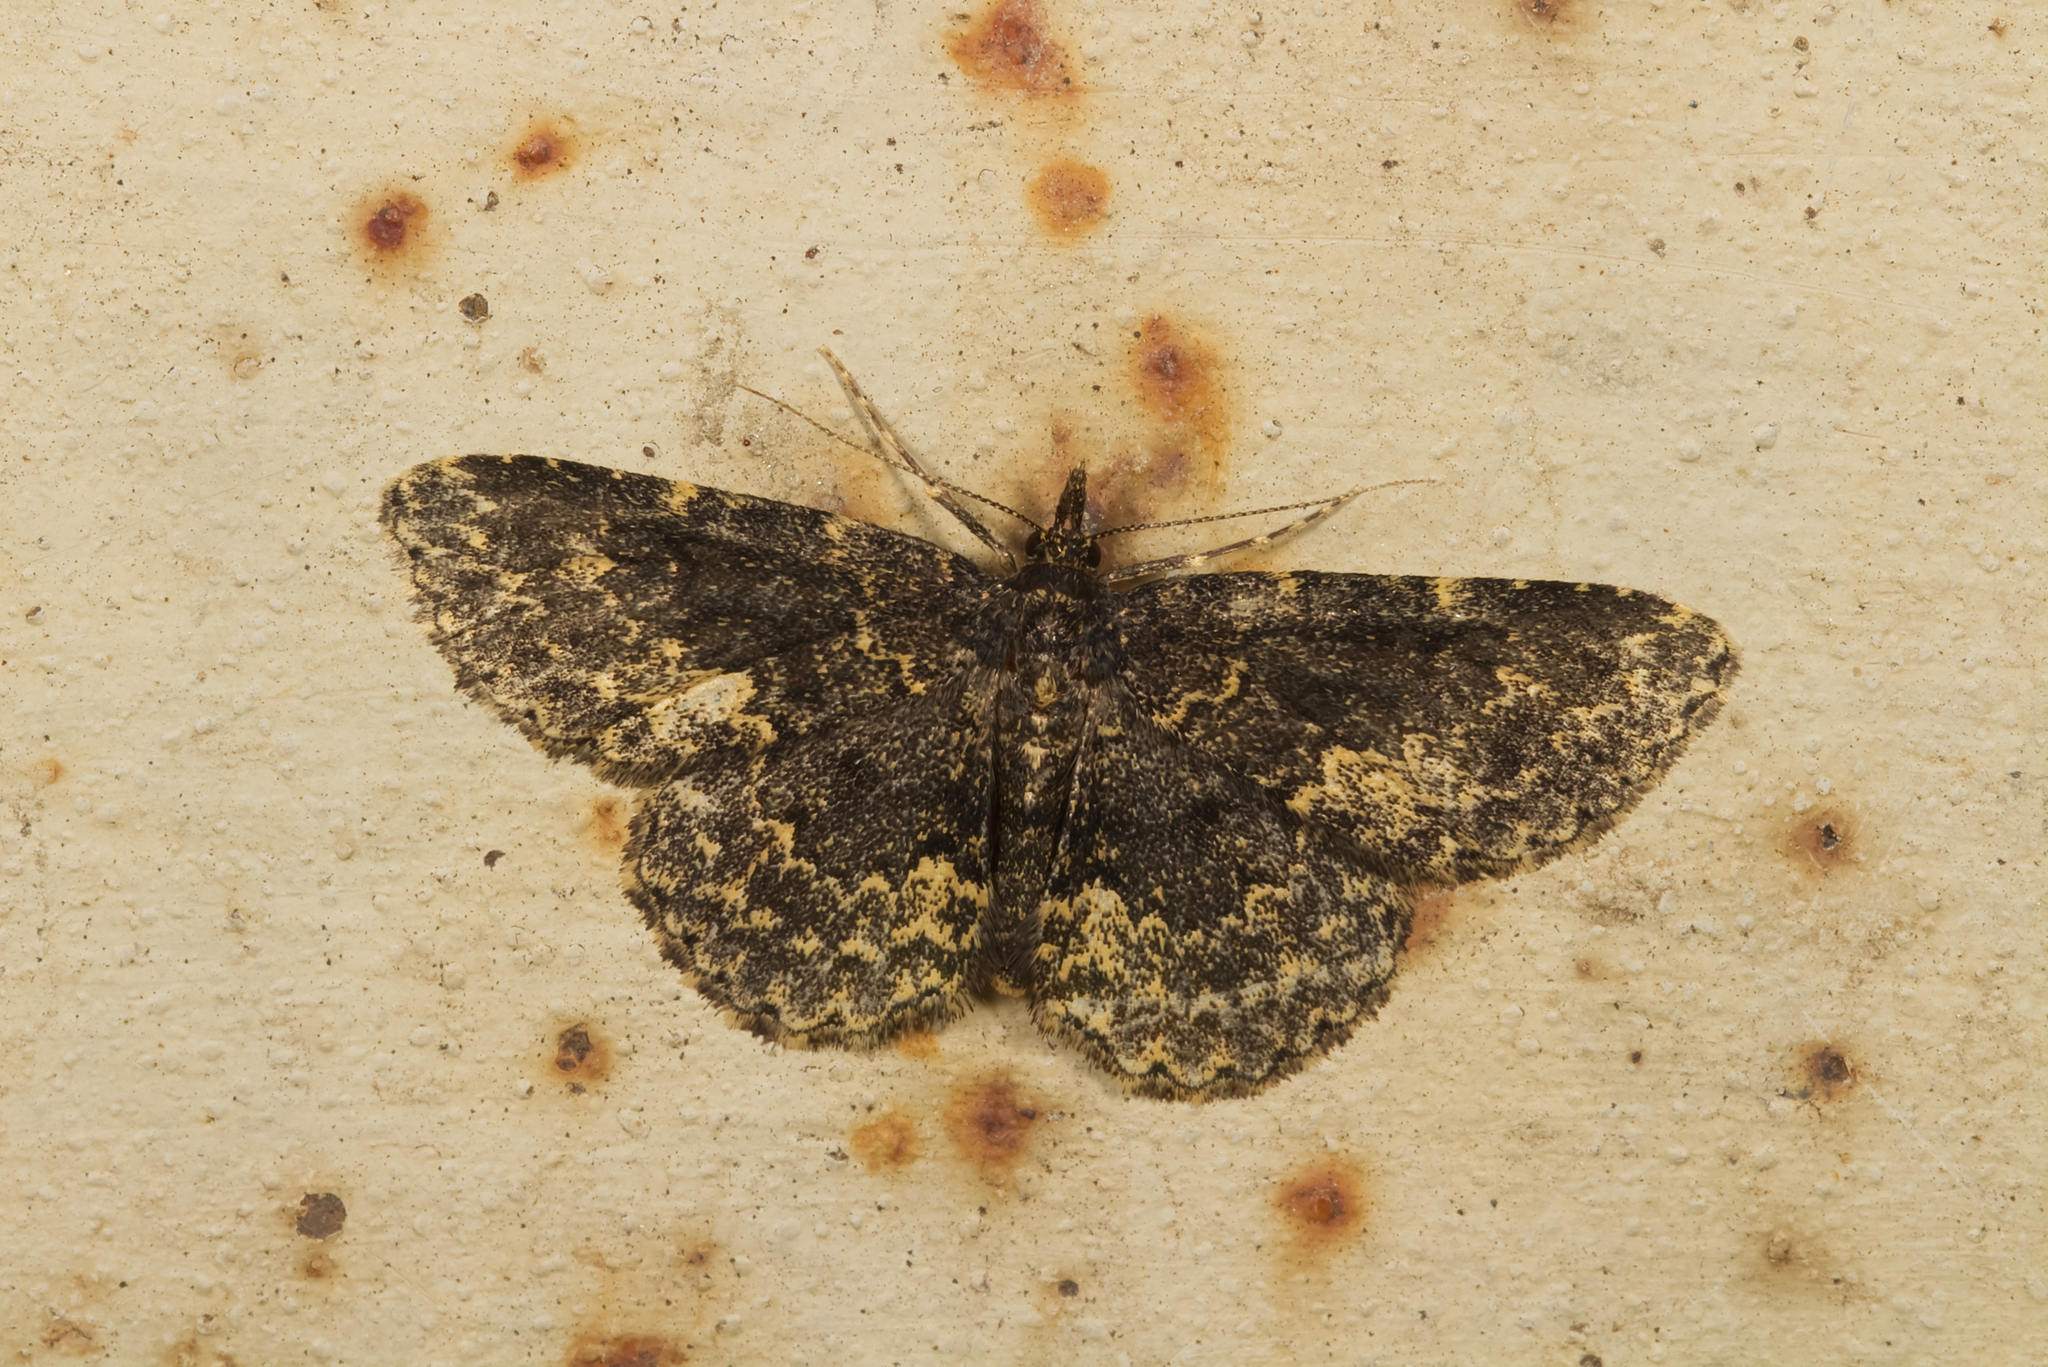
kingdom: Animalia
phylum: Arthropoda
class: Insecta
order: Lepidoptera
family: Erebidae
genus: Parascotia
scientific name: Parascotia fuliginaria
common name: Waved black
